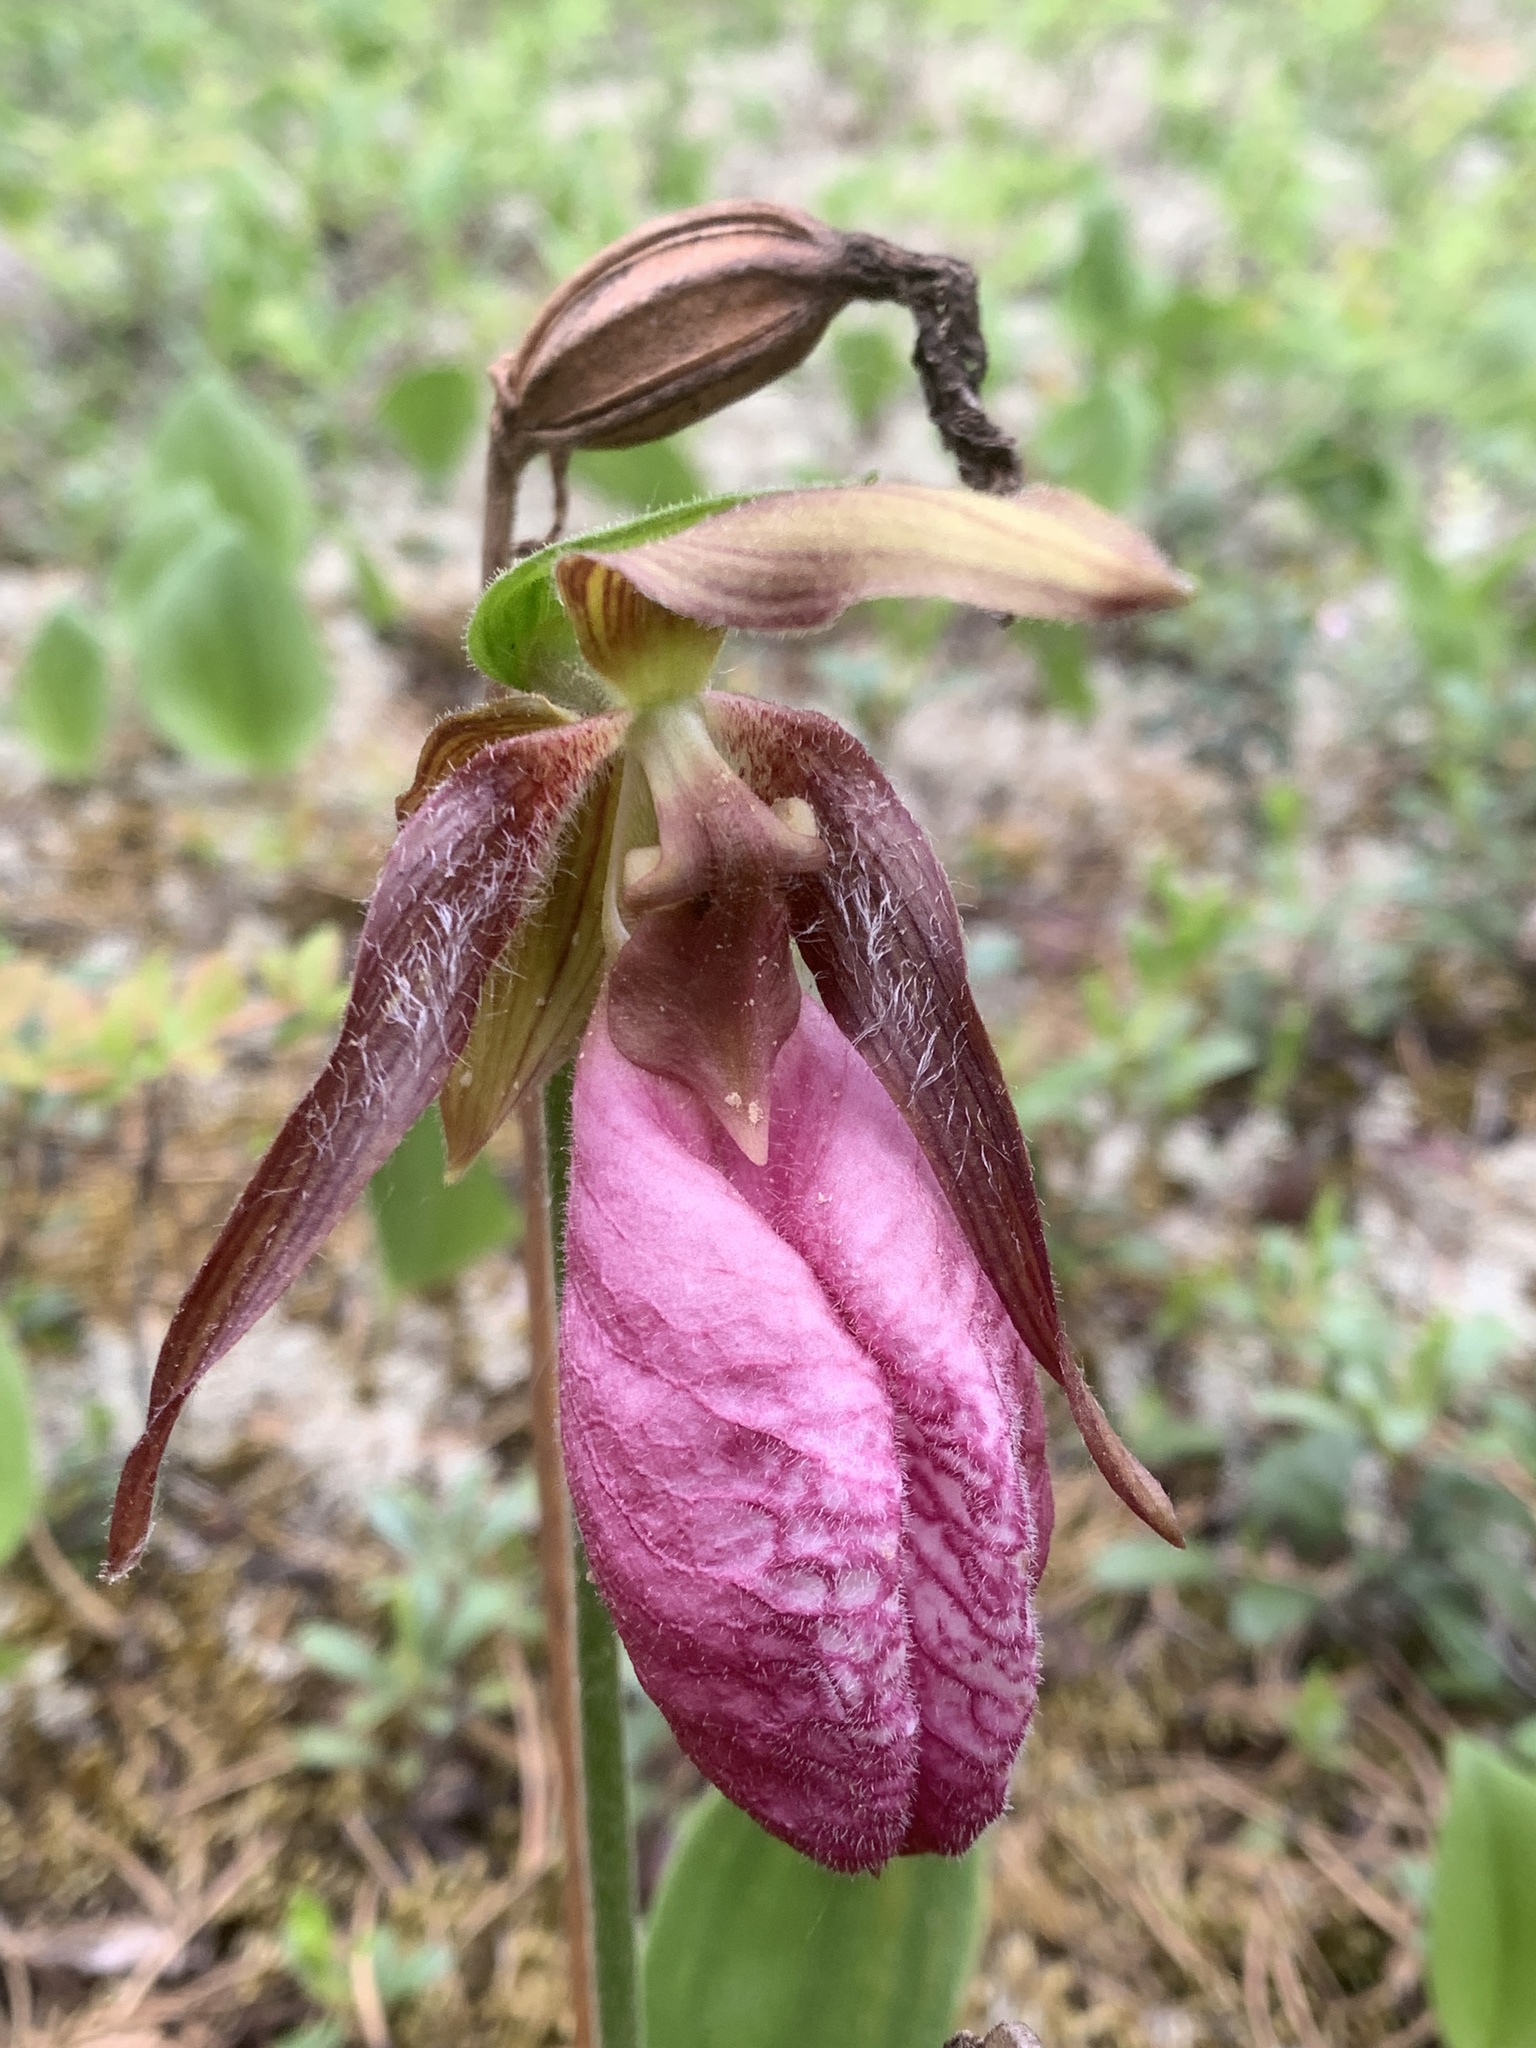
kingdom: Plantae
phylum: Tracheophyta
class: Liliopsida
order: Asparagales
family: Orchidaceae
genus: Cypripedium
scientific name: Cypripedium acaule
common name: Pink lady's-slipper
